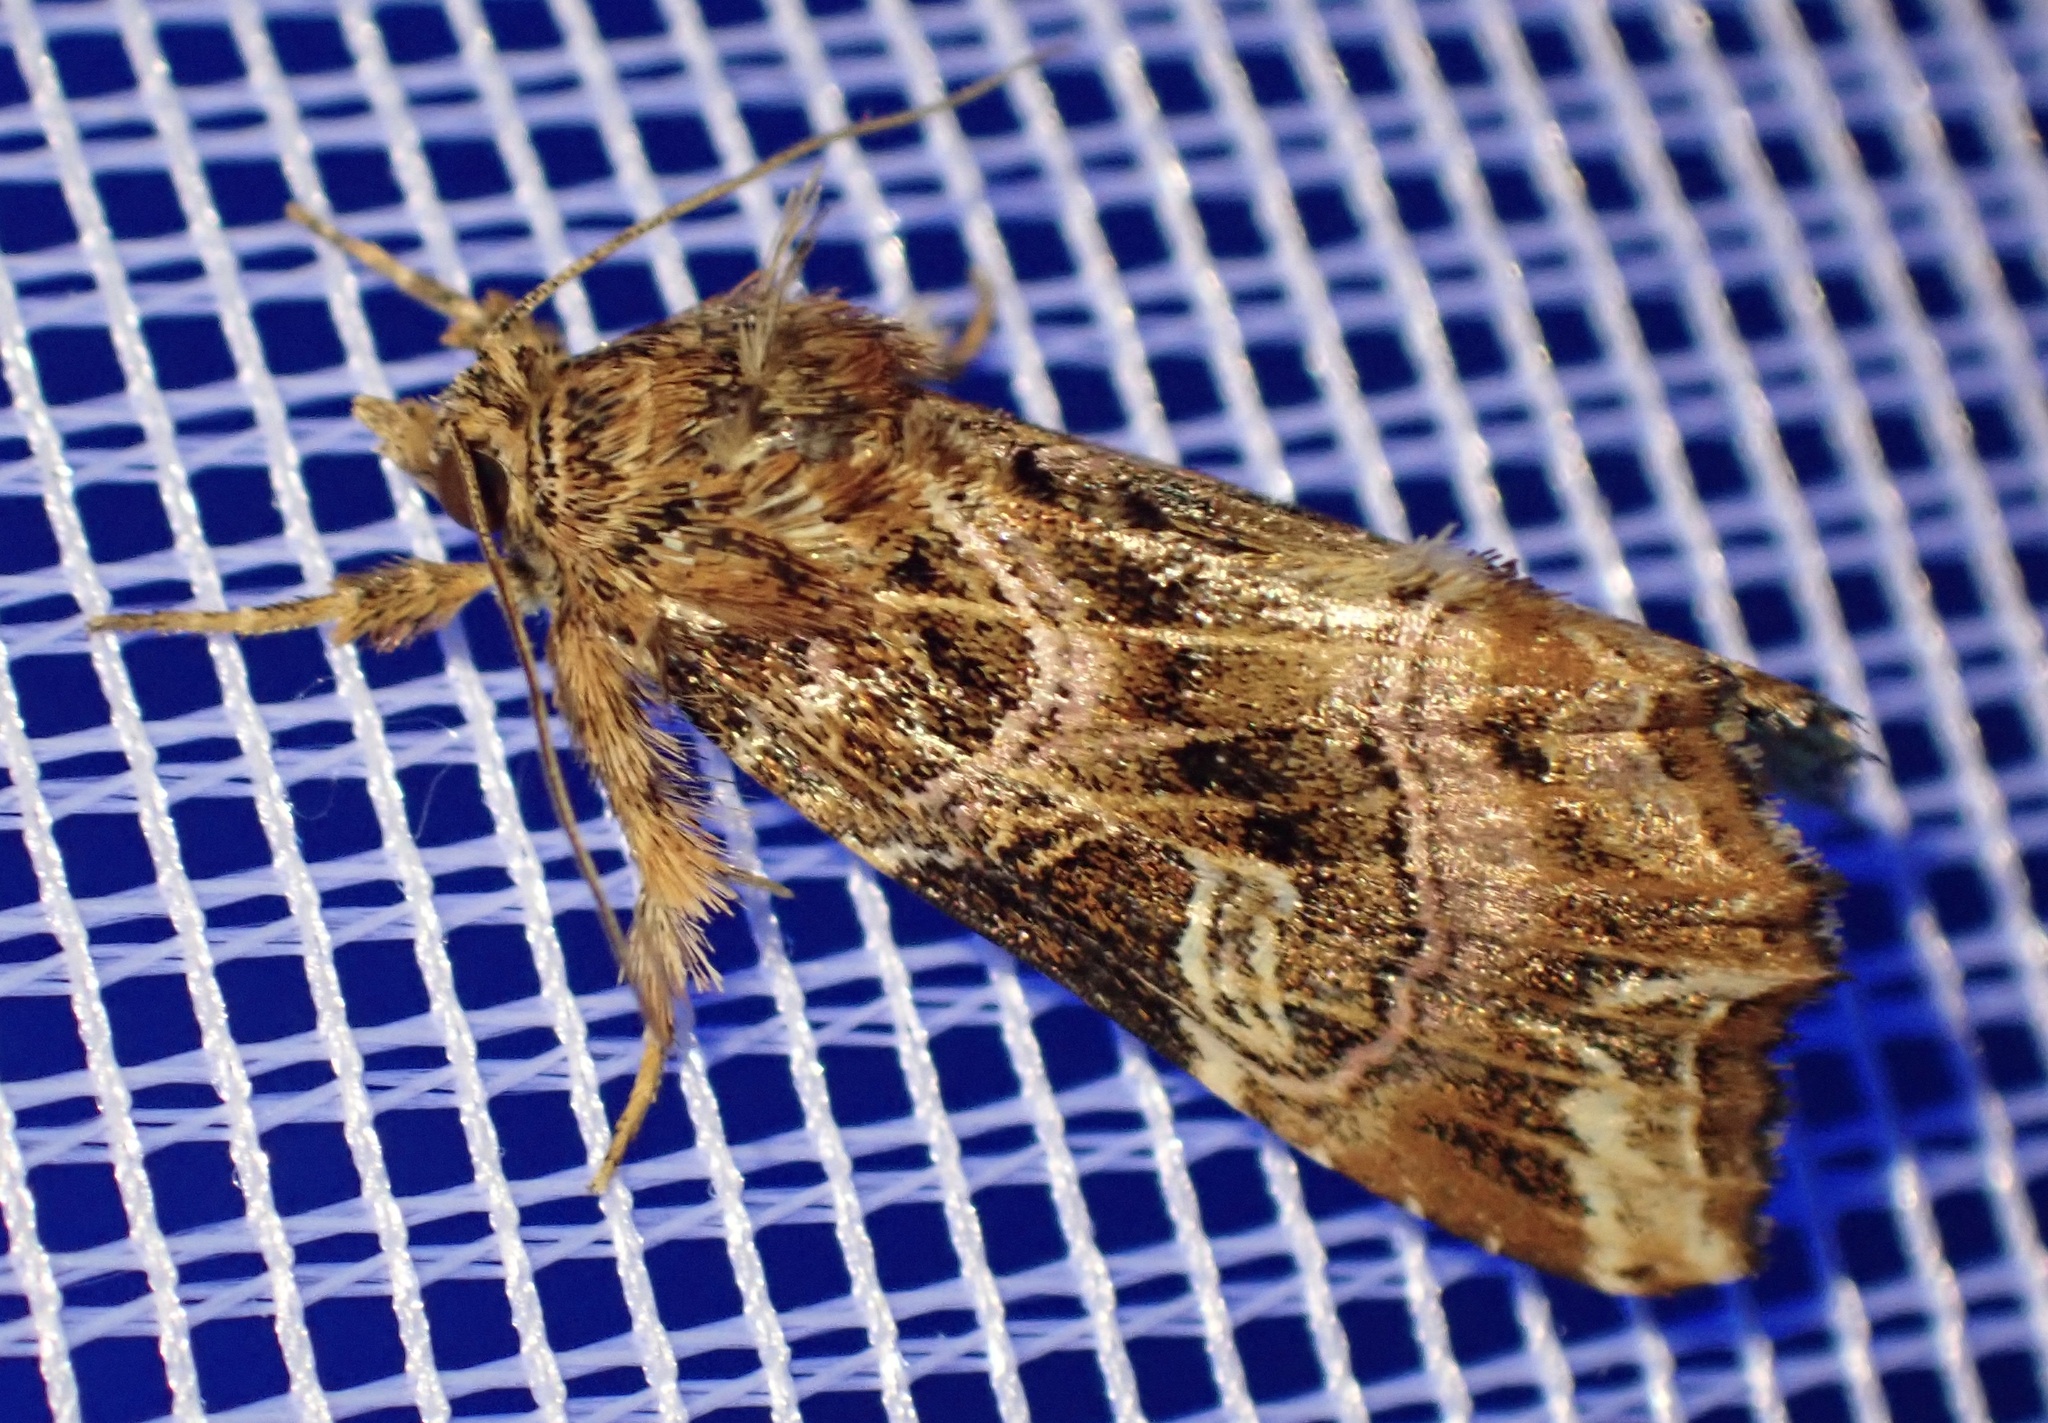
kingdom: Animalia
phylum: Arthropoda
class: Insecta
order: Lepidoptera
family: Noctuidae
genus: Callopistria
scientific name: Callopistria juventina
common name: Latin
